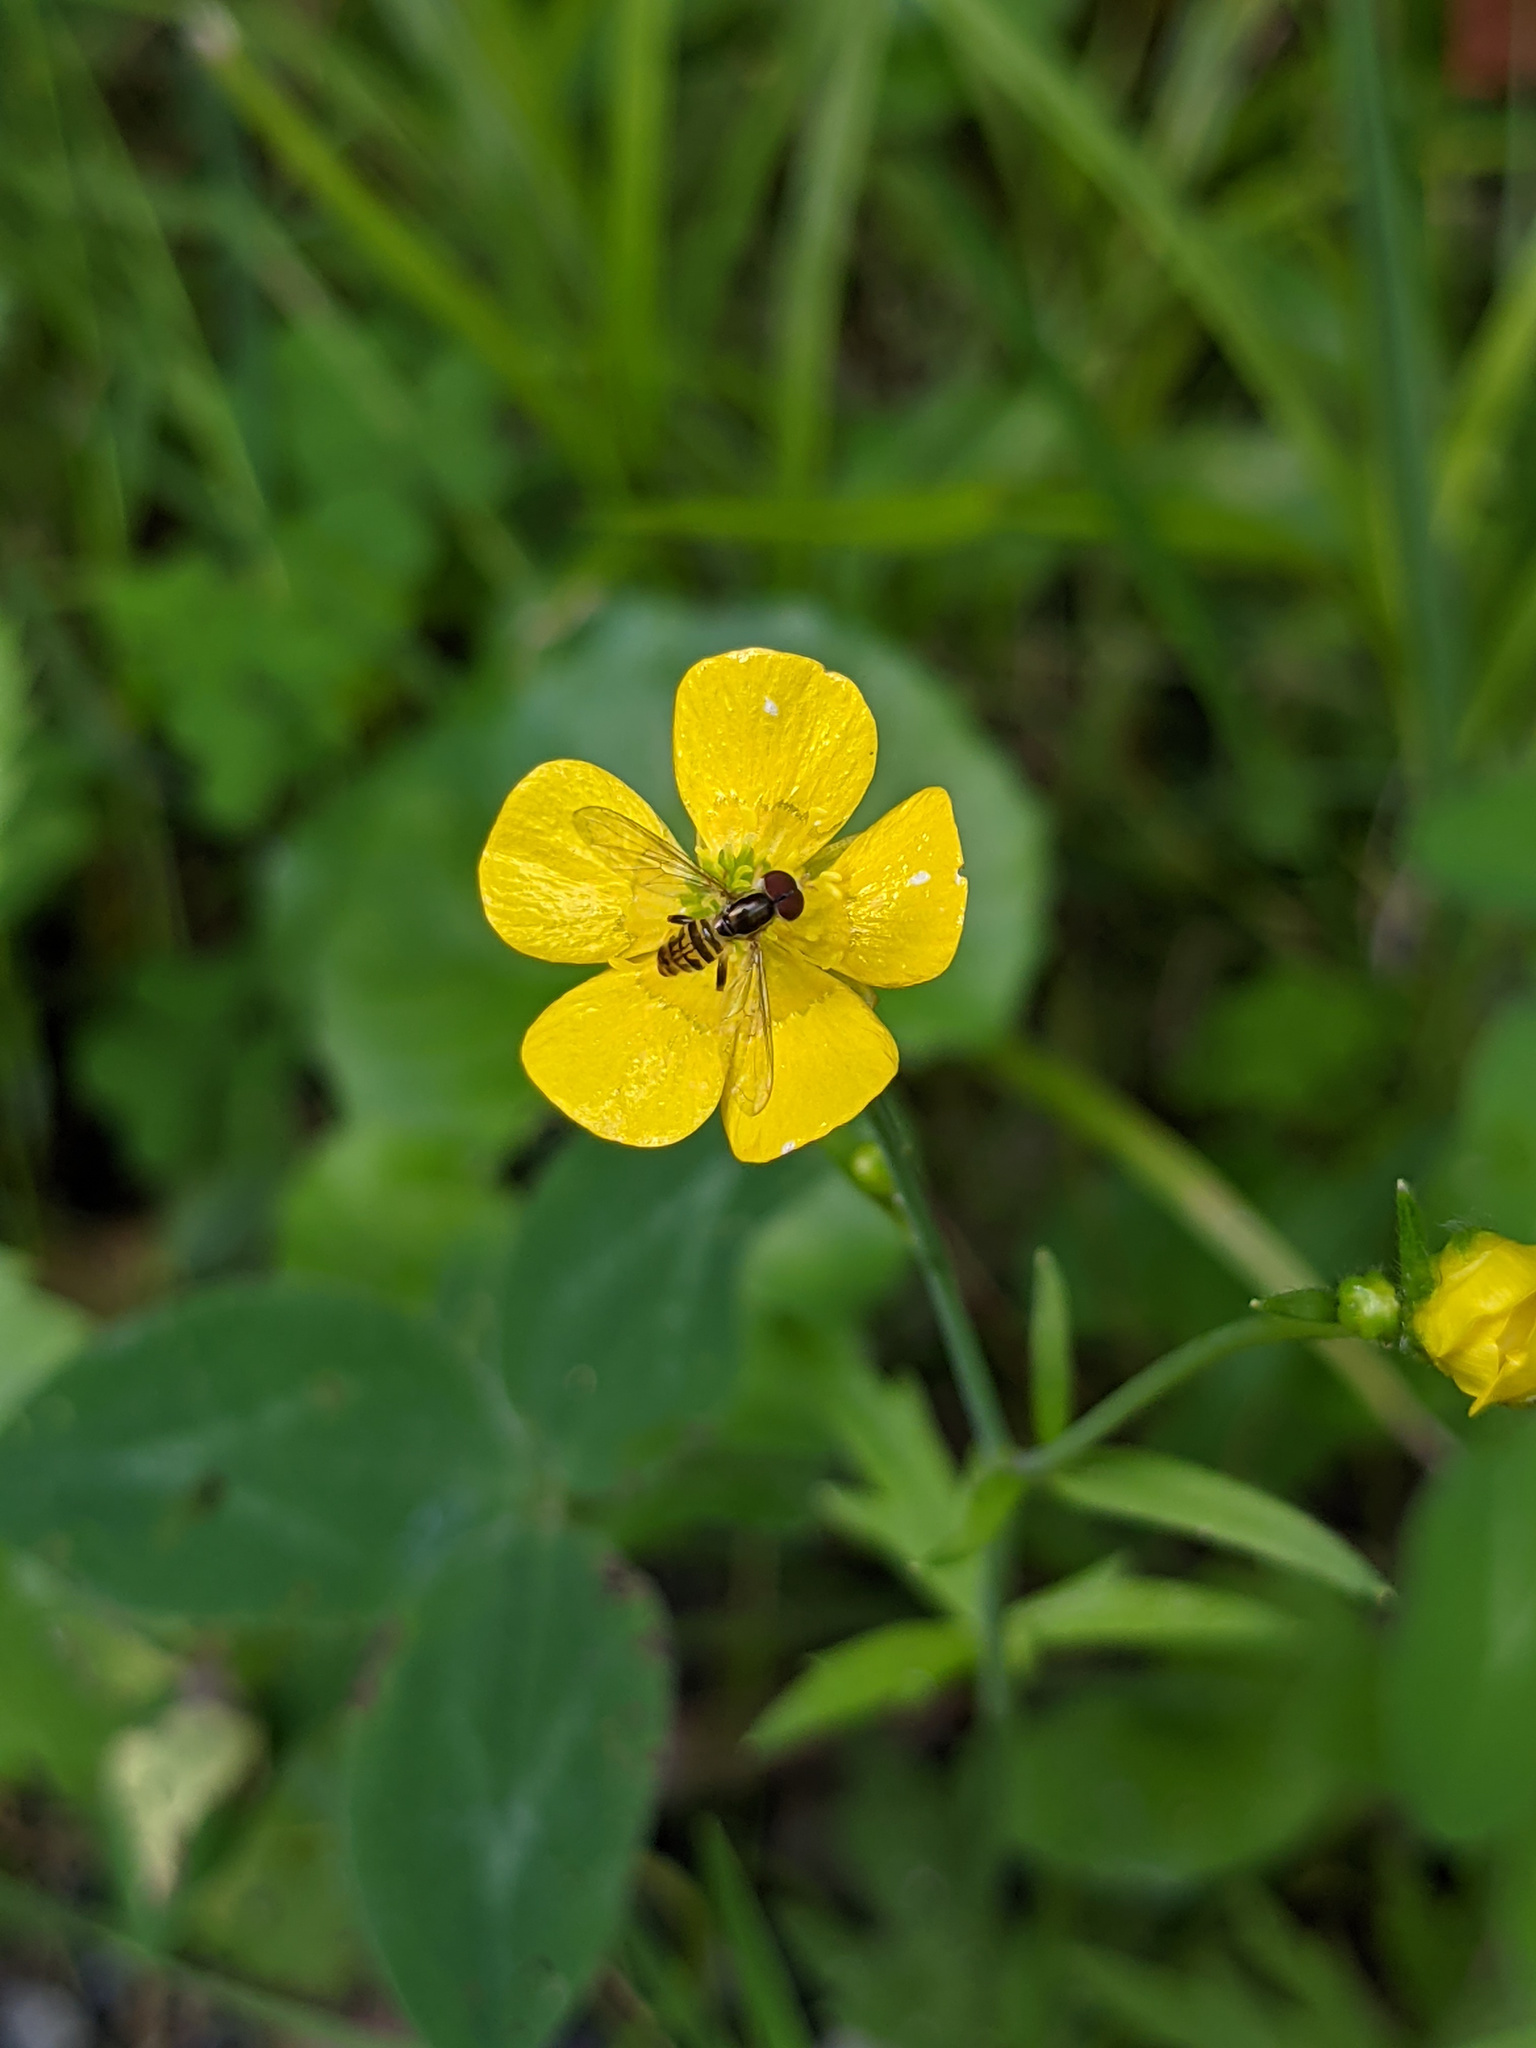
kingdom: Animalia
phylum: Arthropoda
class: Insecta
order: Diptera
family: Syrphidae
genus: Toxomerus
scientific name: Toxomerus geminatus
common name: Eastern calligrapher
